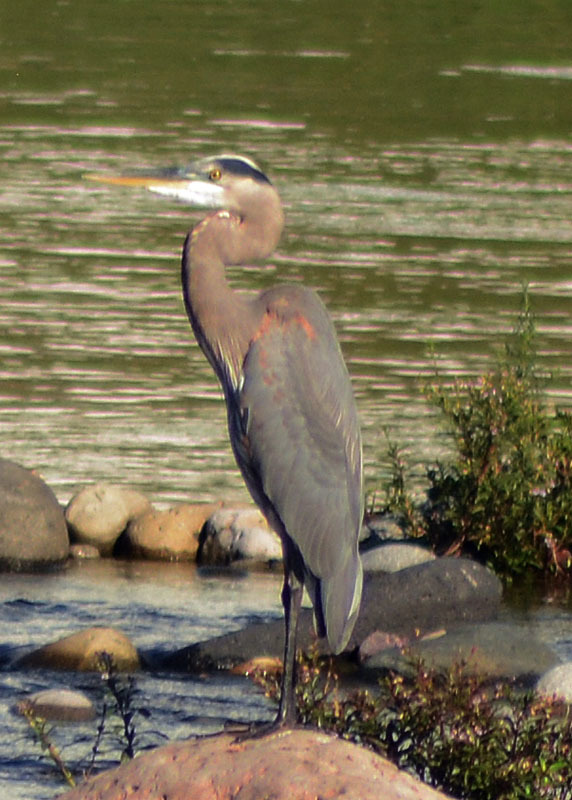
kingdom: Animalia
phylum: Chordata
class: Aves
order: Pelecaniformes
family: Ardeidae
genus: Ardea
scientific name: Ardea herodias
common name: Great blue heron
